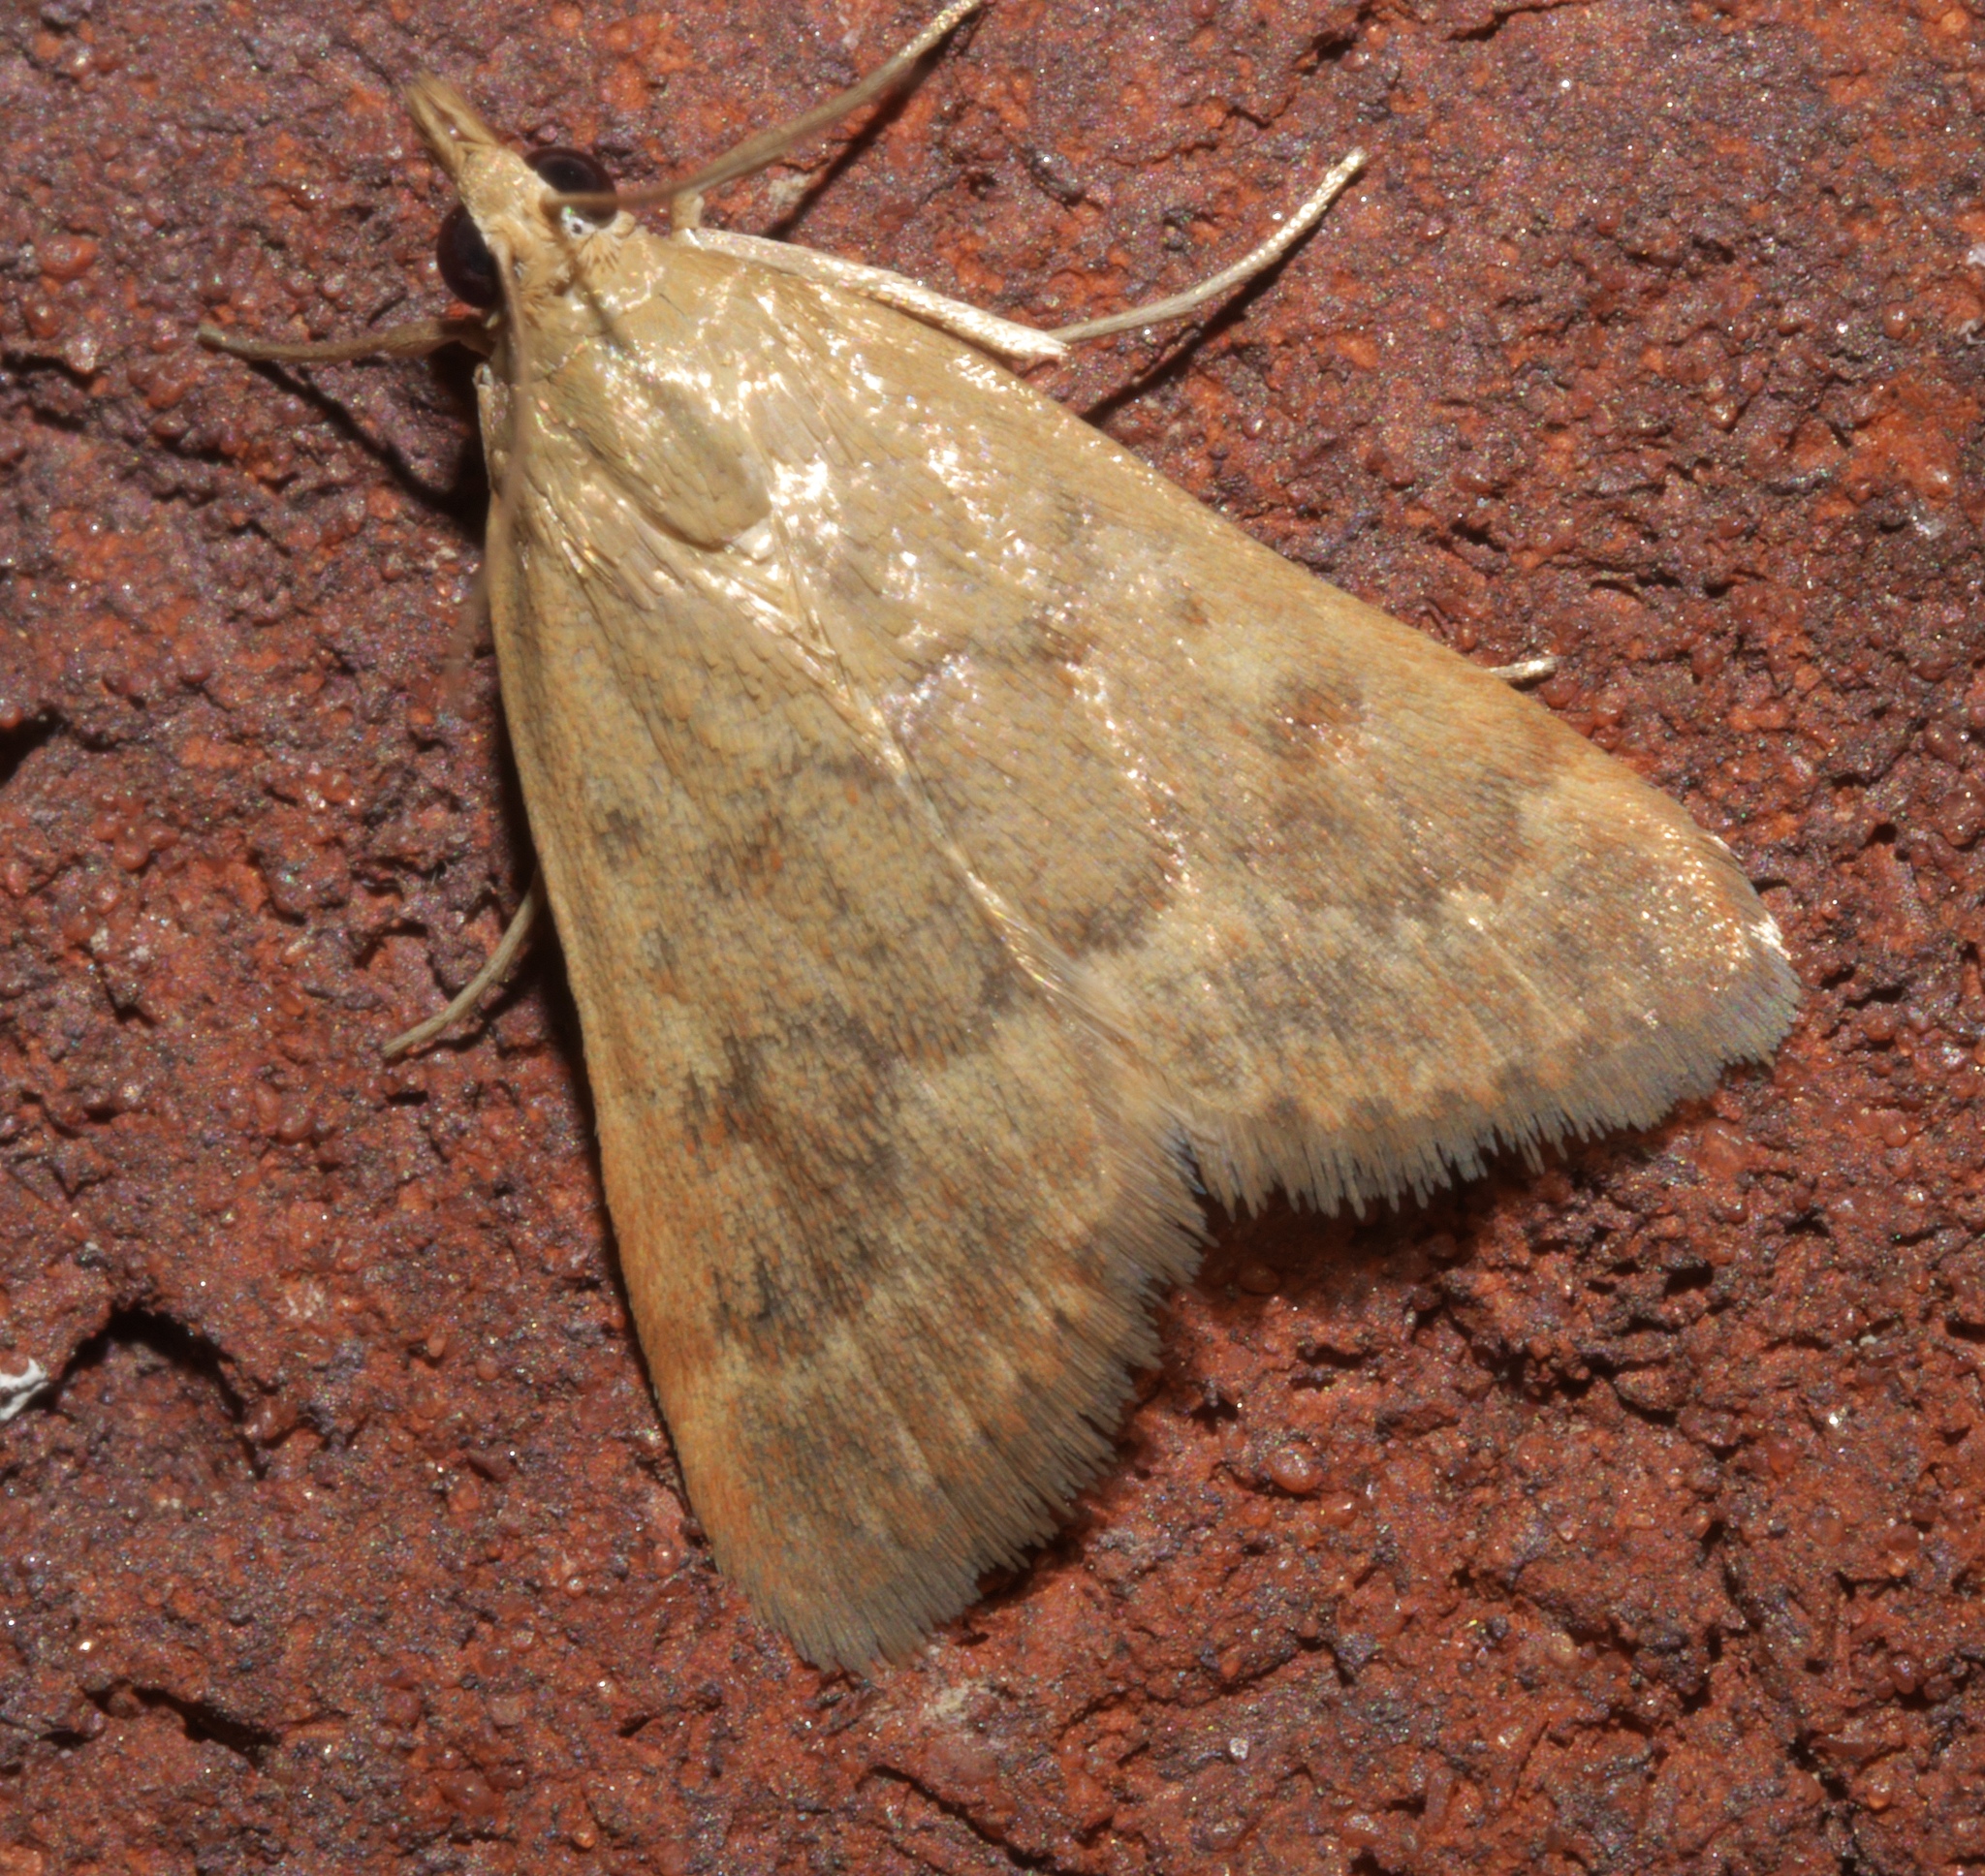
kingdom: Animalia
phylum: Arthropoda
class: Insecta
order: Lepidoptera
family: Crambidae
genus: Achyra
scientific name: Achyra rantalis
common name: Garden webworm
